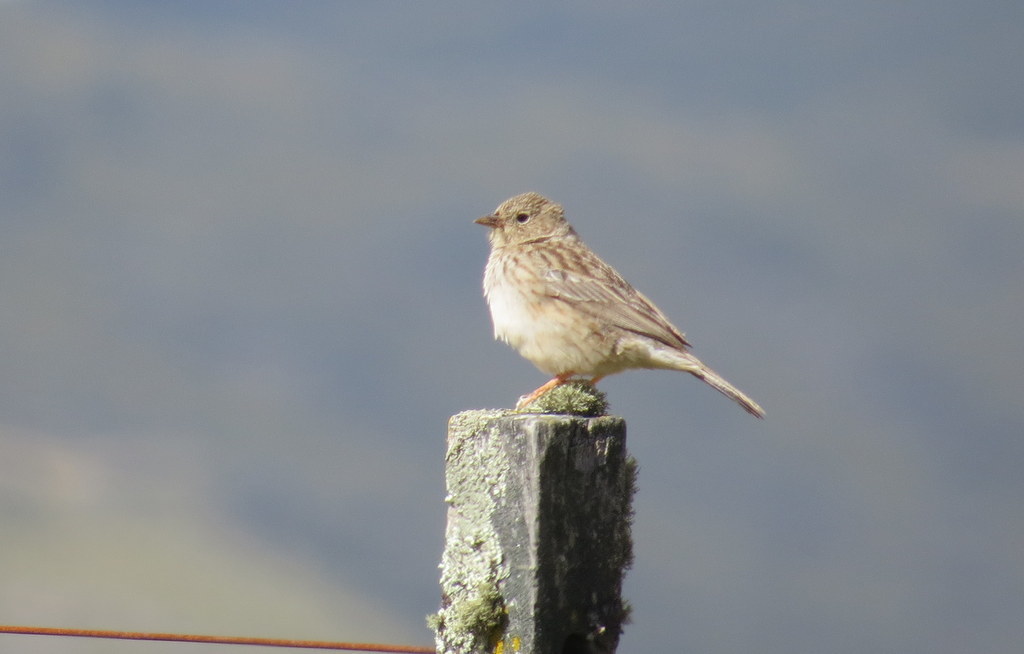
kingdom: Animalia
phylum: Chordata
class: Aves
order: Passeriformes
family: Thraupidae
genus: Porphyrospiza
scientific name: Porphyrospiza alaudina
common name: Band-tailed sierra finch
